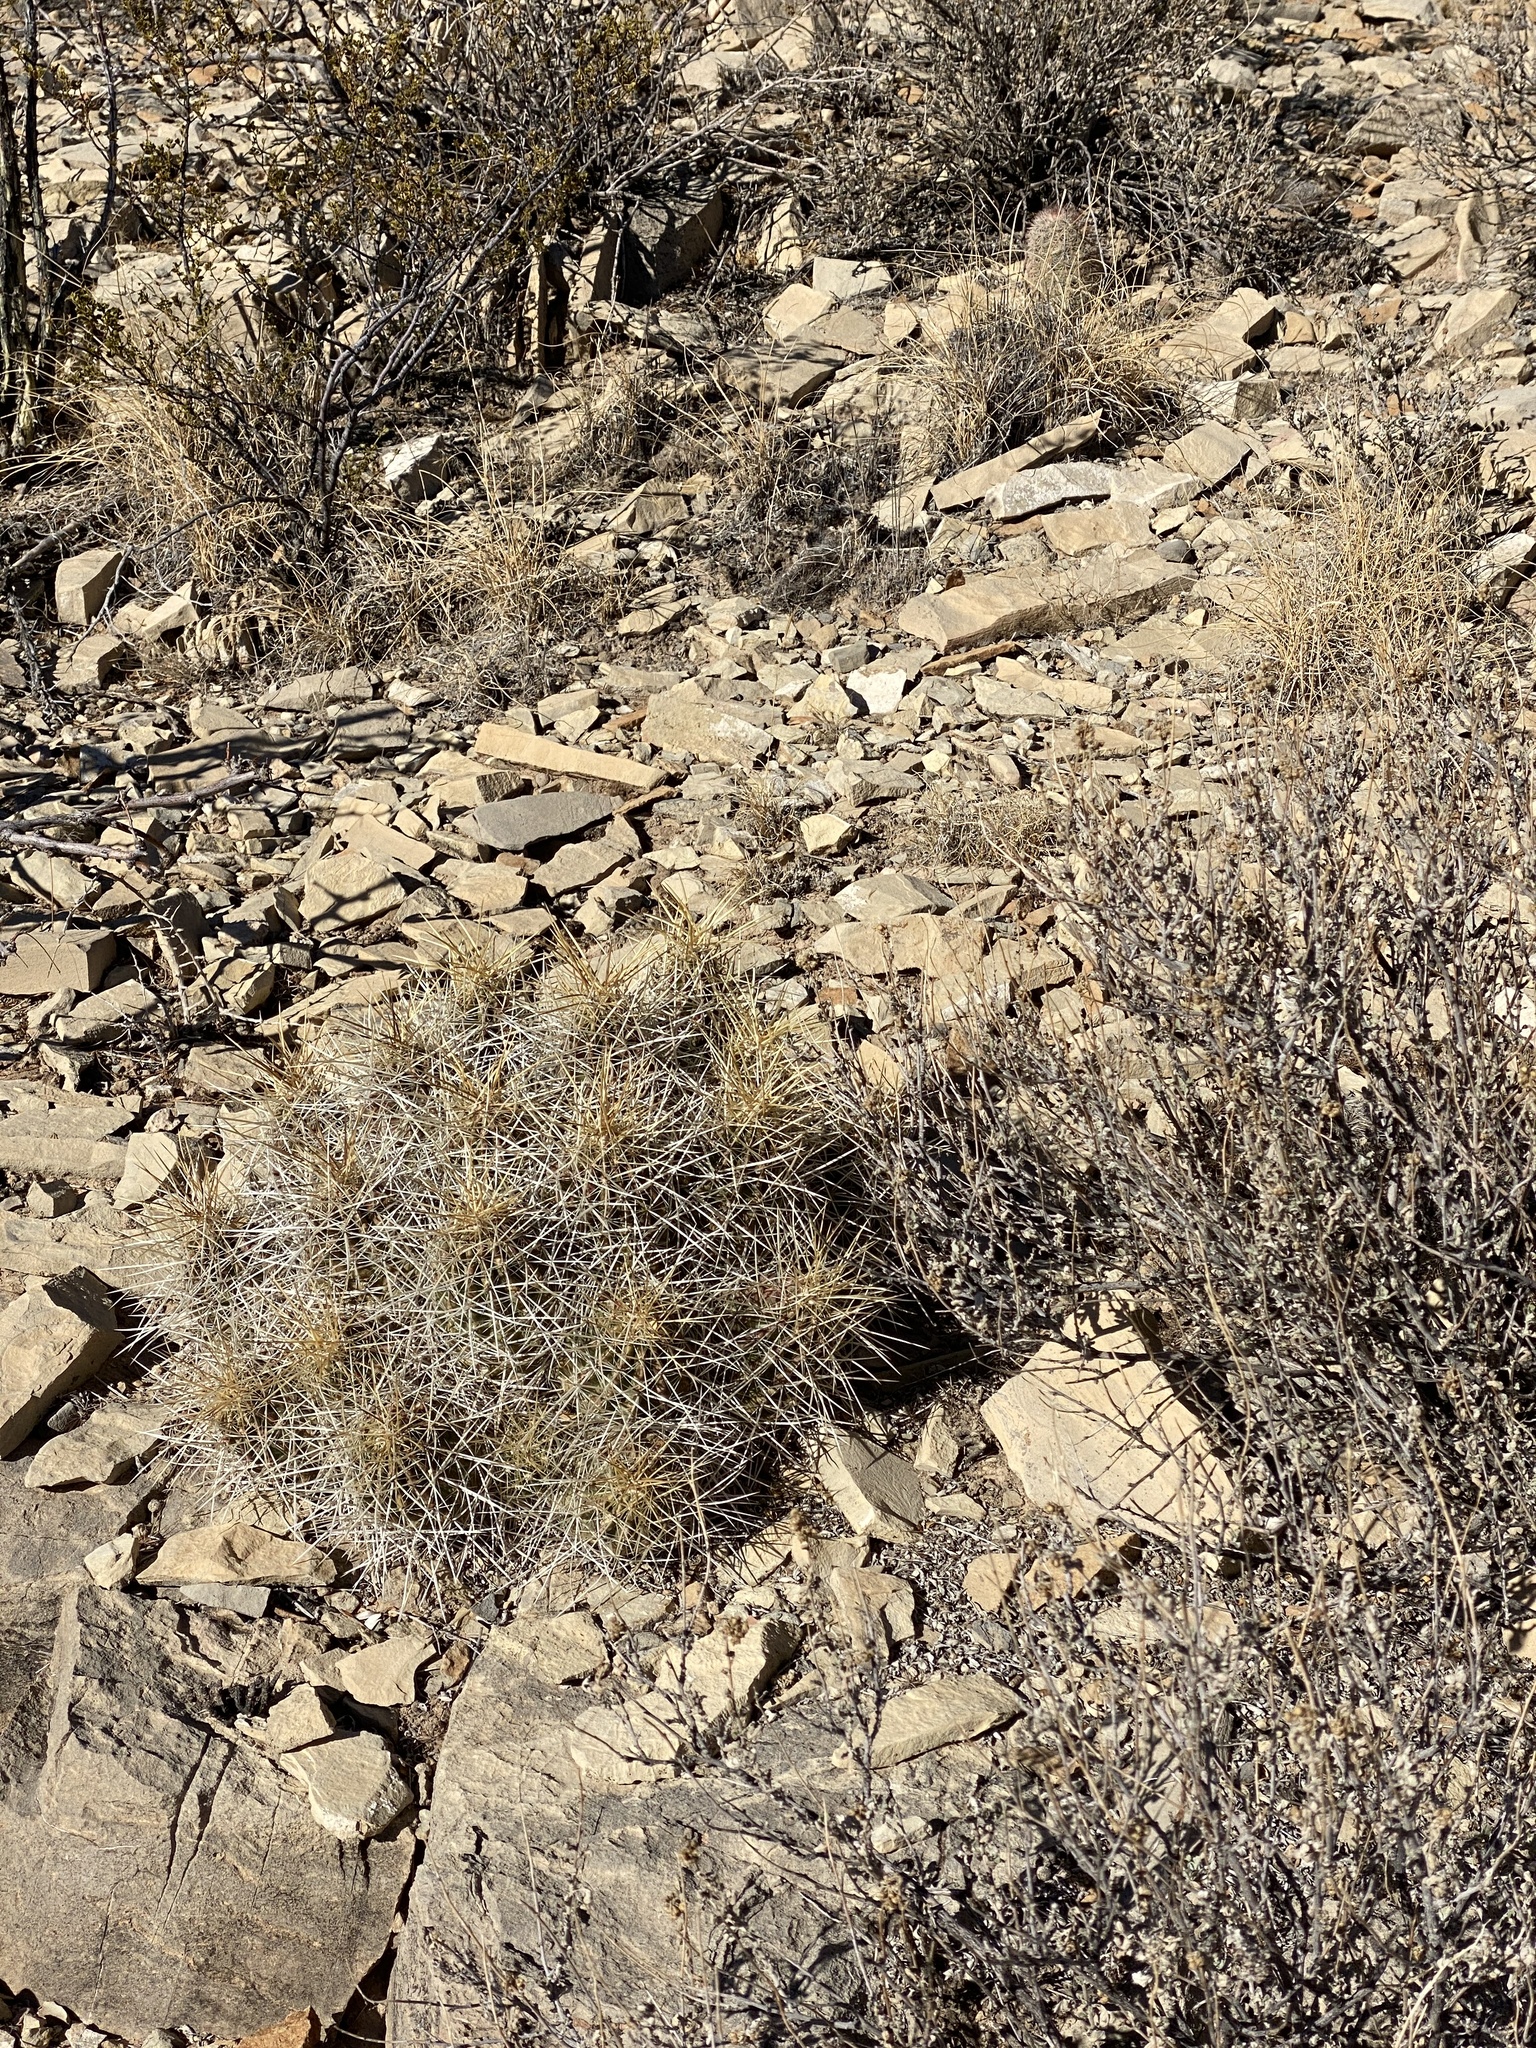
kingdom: Plantae
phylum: Tracheophyta
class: Magnoliopsida
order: Caryophyllales
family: Cactaceae
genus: Echinocereus
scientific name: Echinocereus stramineus
